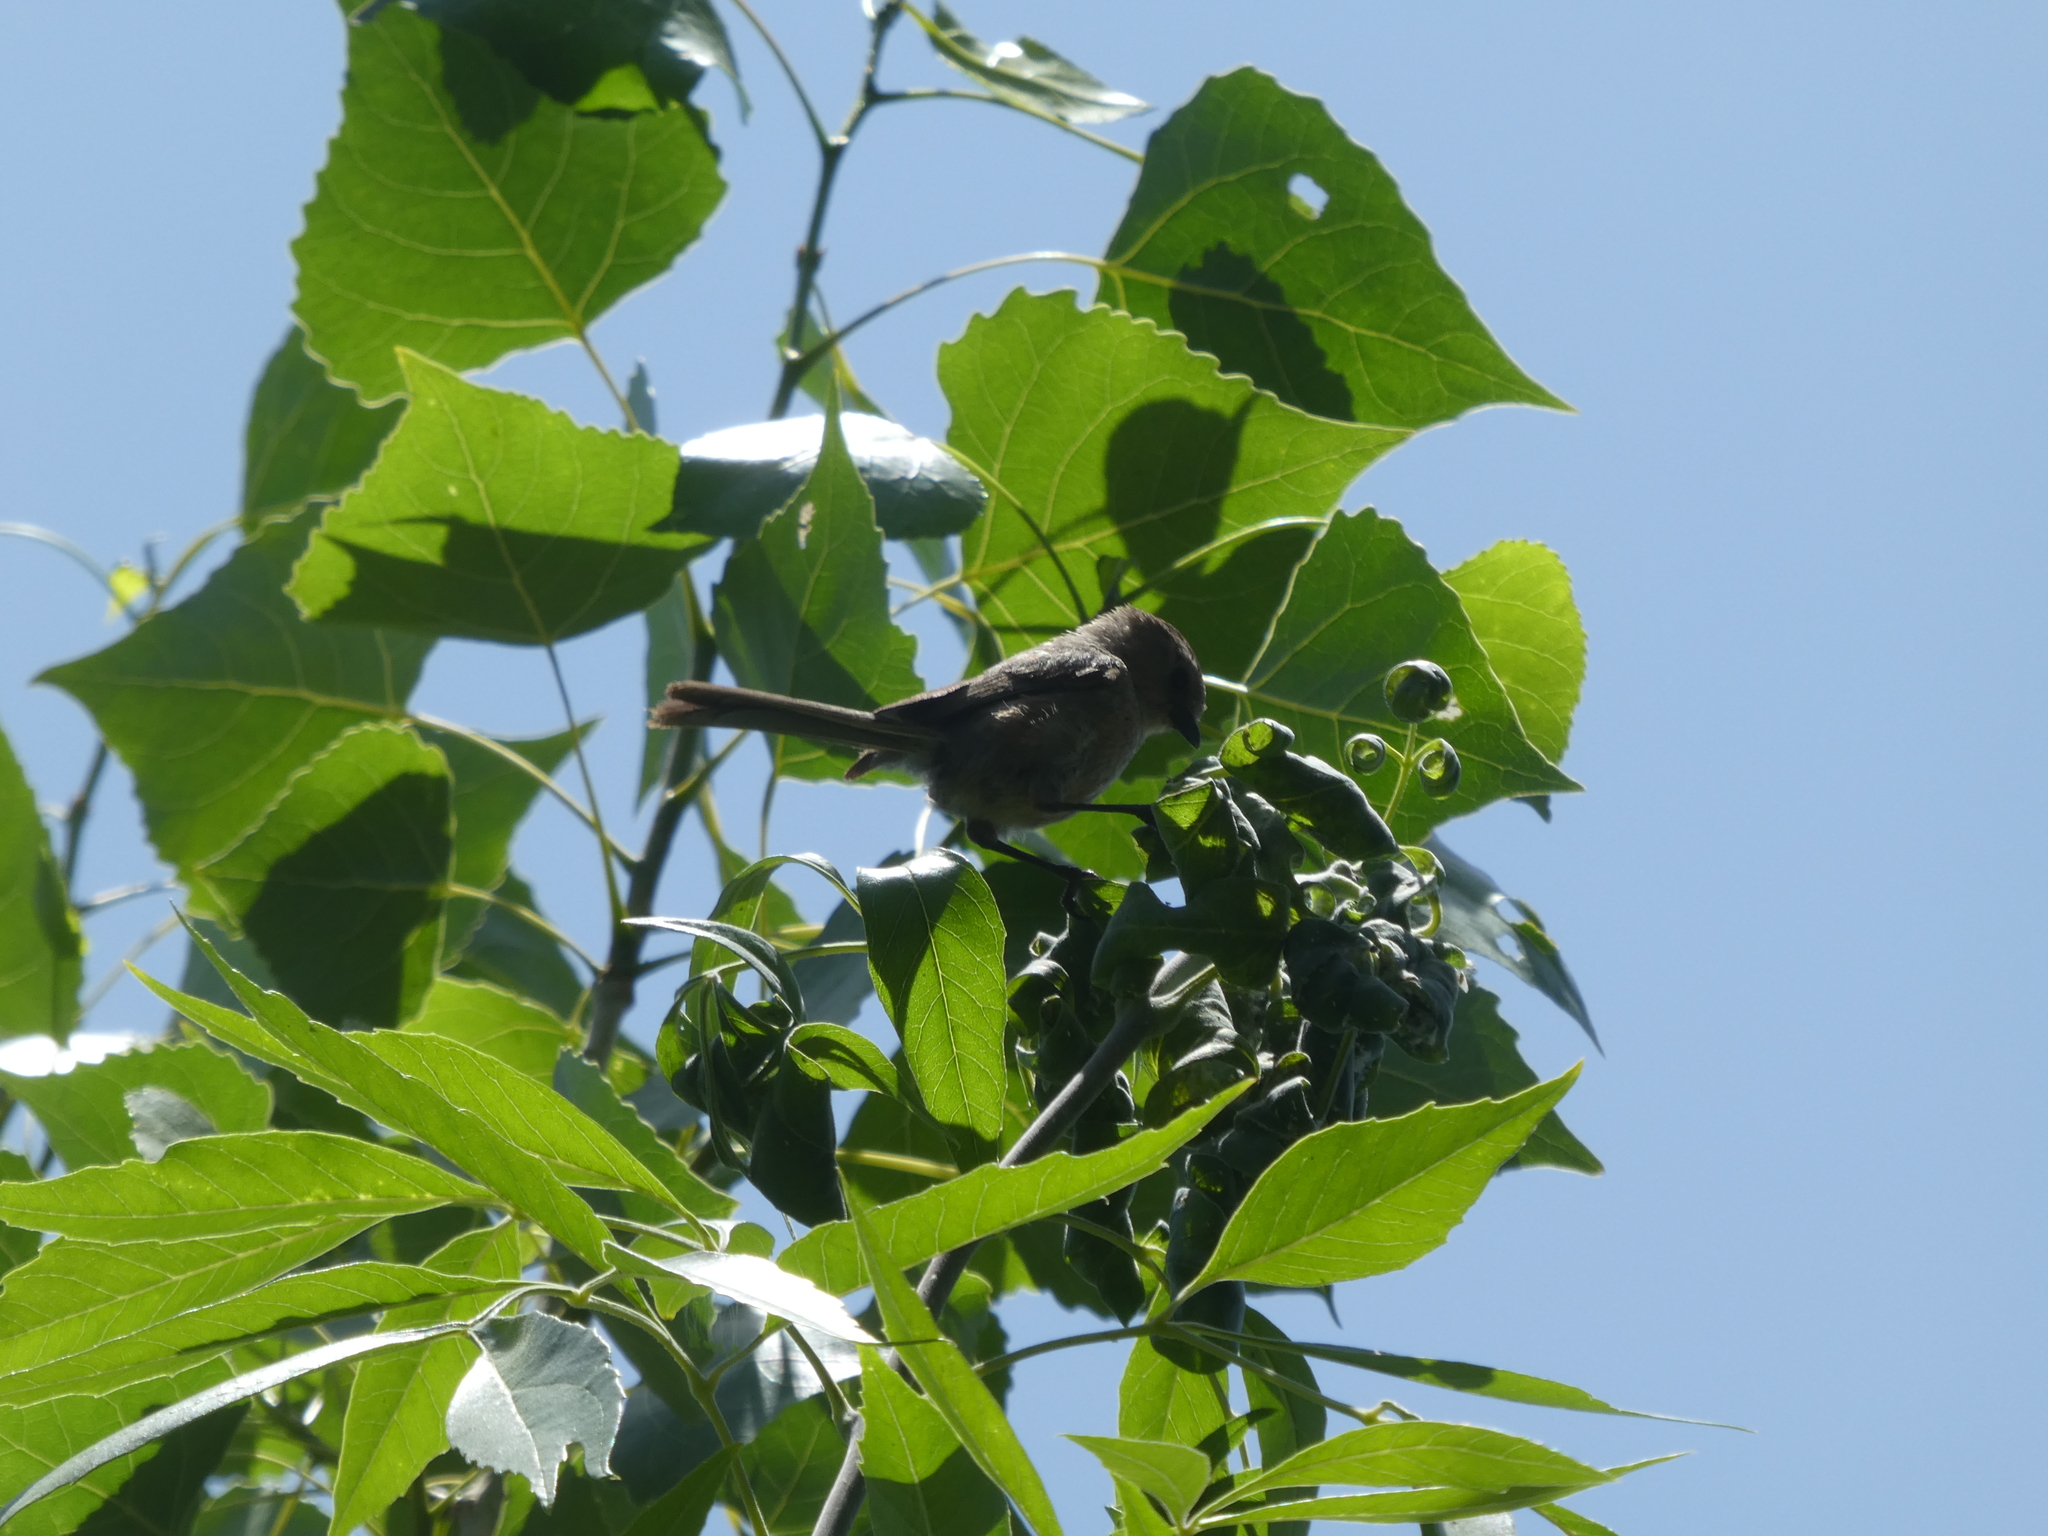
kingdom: Animalia
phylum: Chordata
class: Aves
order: Passeriformes
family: Aegithalidae
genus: Psaltriparus
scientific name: Psaltriparus minimus
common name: American bushtit
